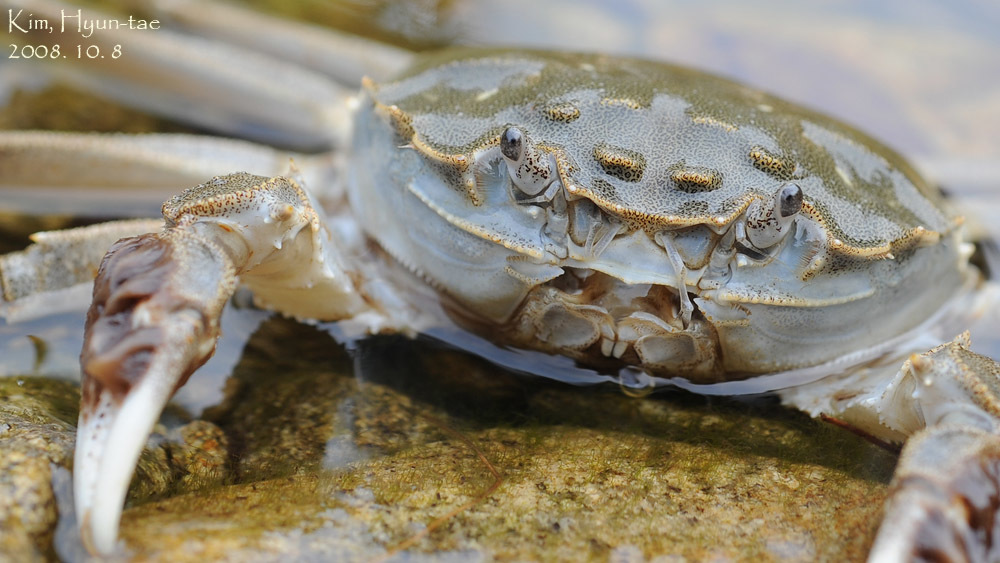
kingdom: Animalia
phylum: Arthropoda
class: Malacostraca
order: Decapoda
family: Varunidae
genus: Eriocheir
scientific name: Eriocheir sinensis
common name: Chinese mitten crab
